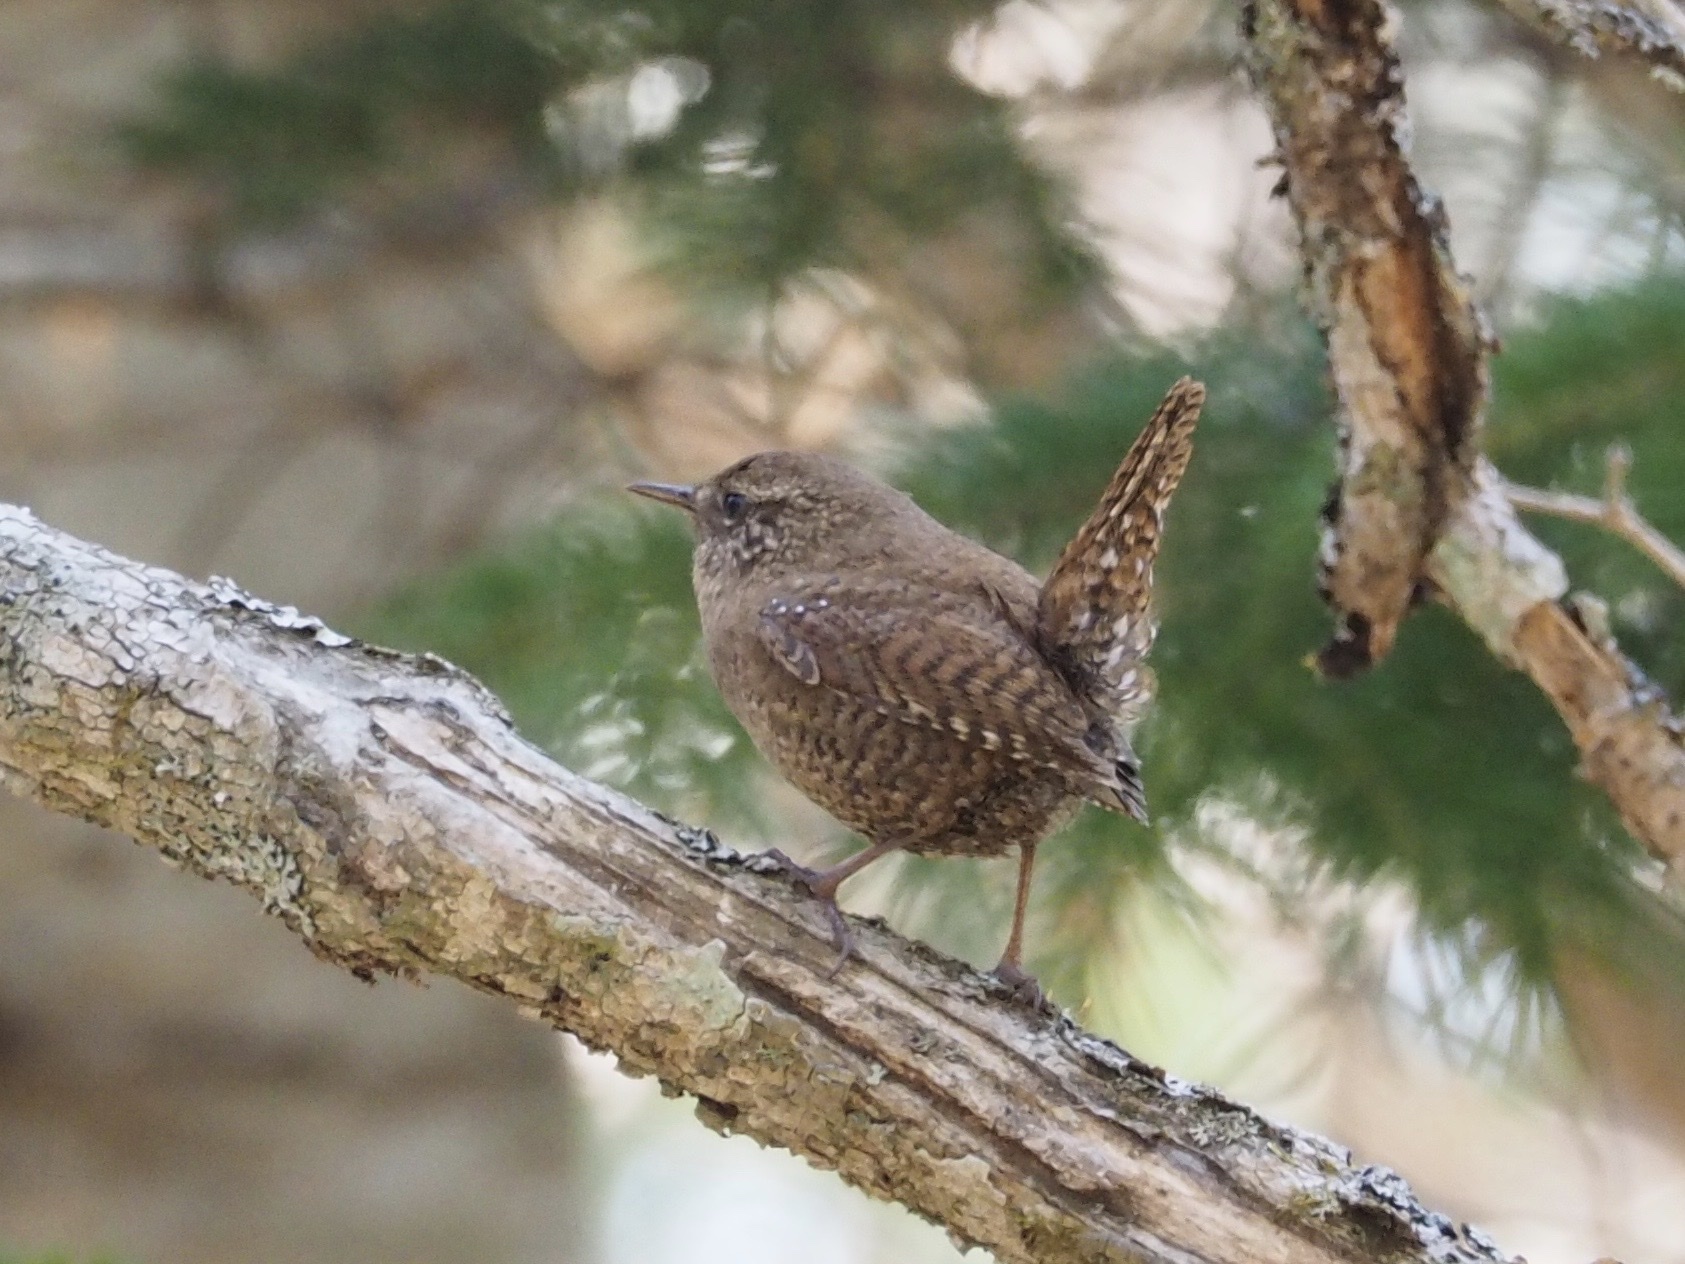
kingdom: Animalia
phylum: Chordata
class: Aves
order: Passeriformes
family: Troglodytidae
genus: Troglodytes
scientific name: Troglodytes troglodytes
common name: Eurasian wren
